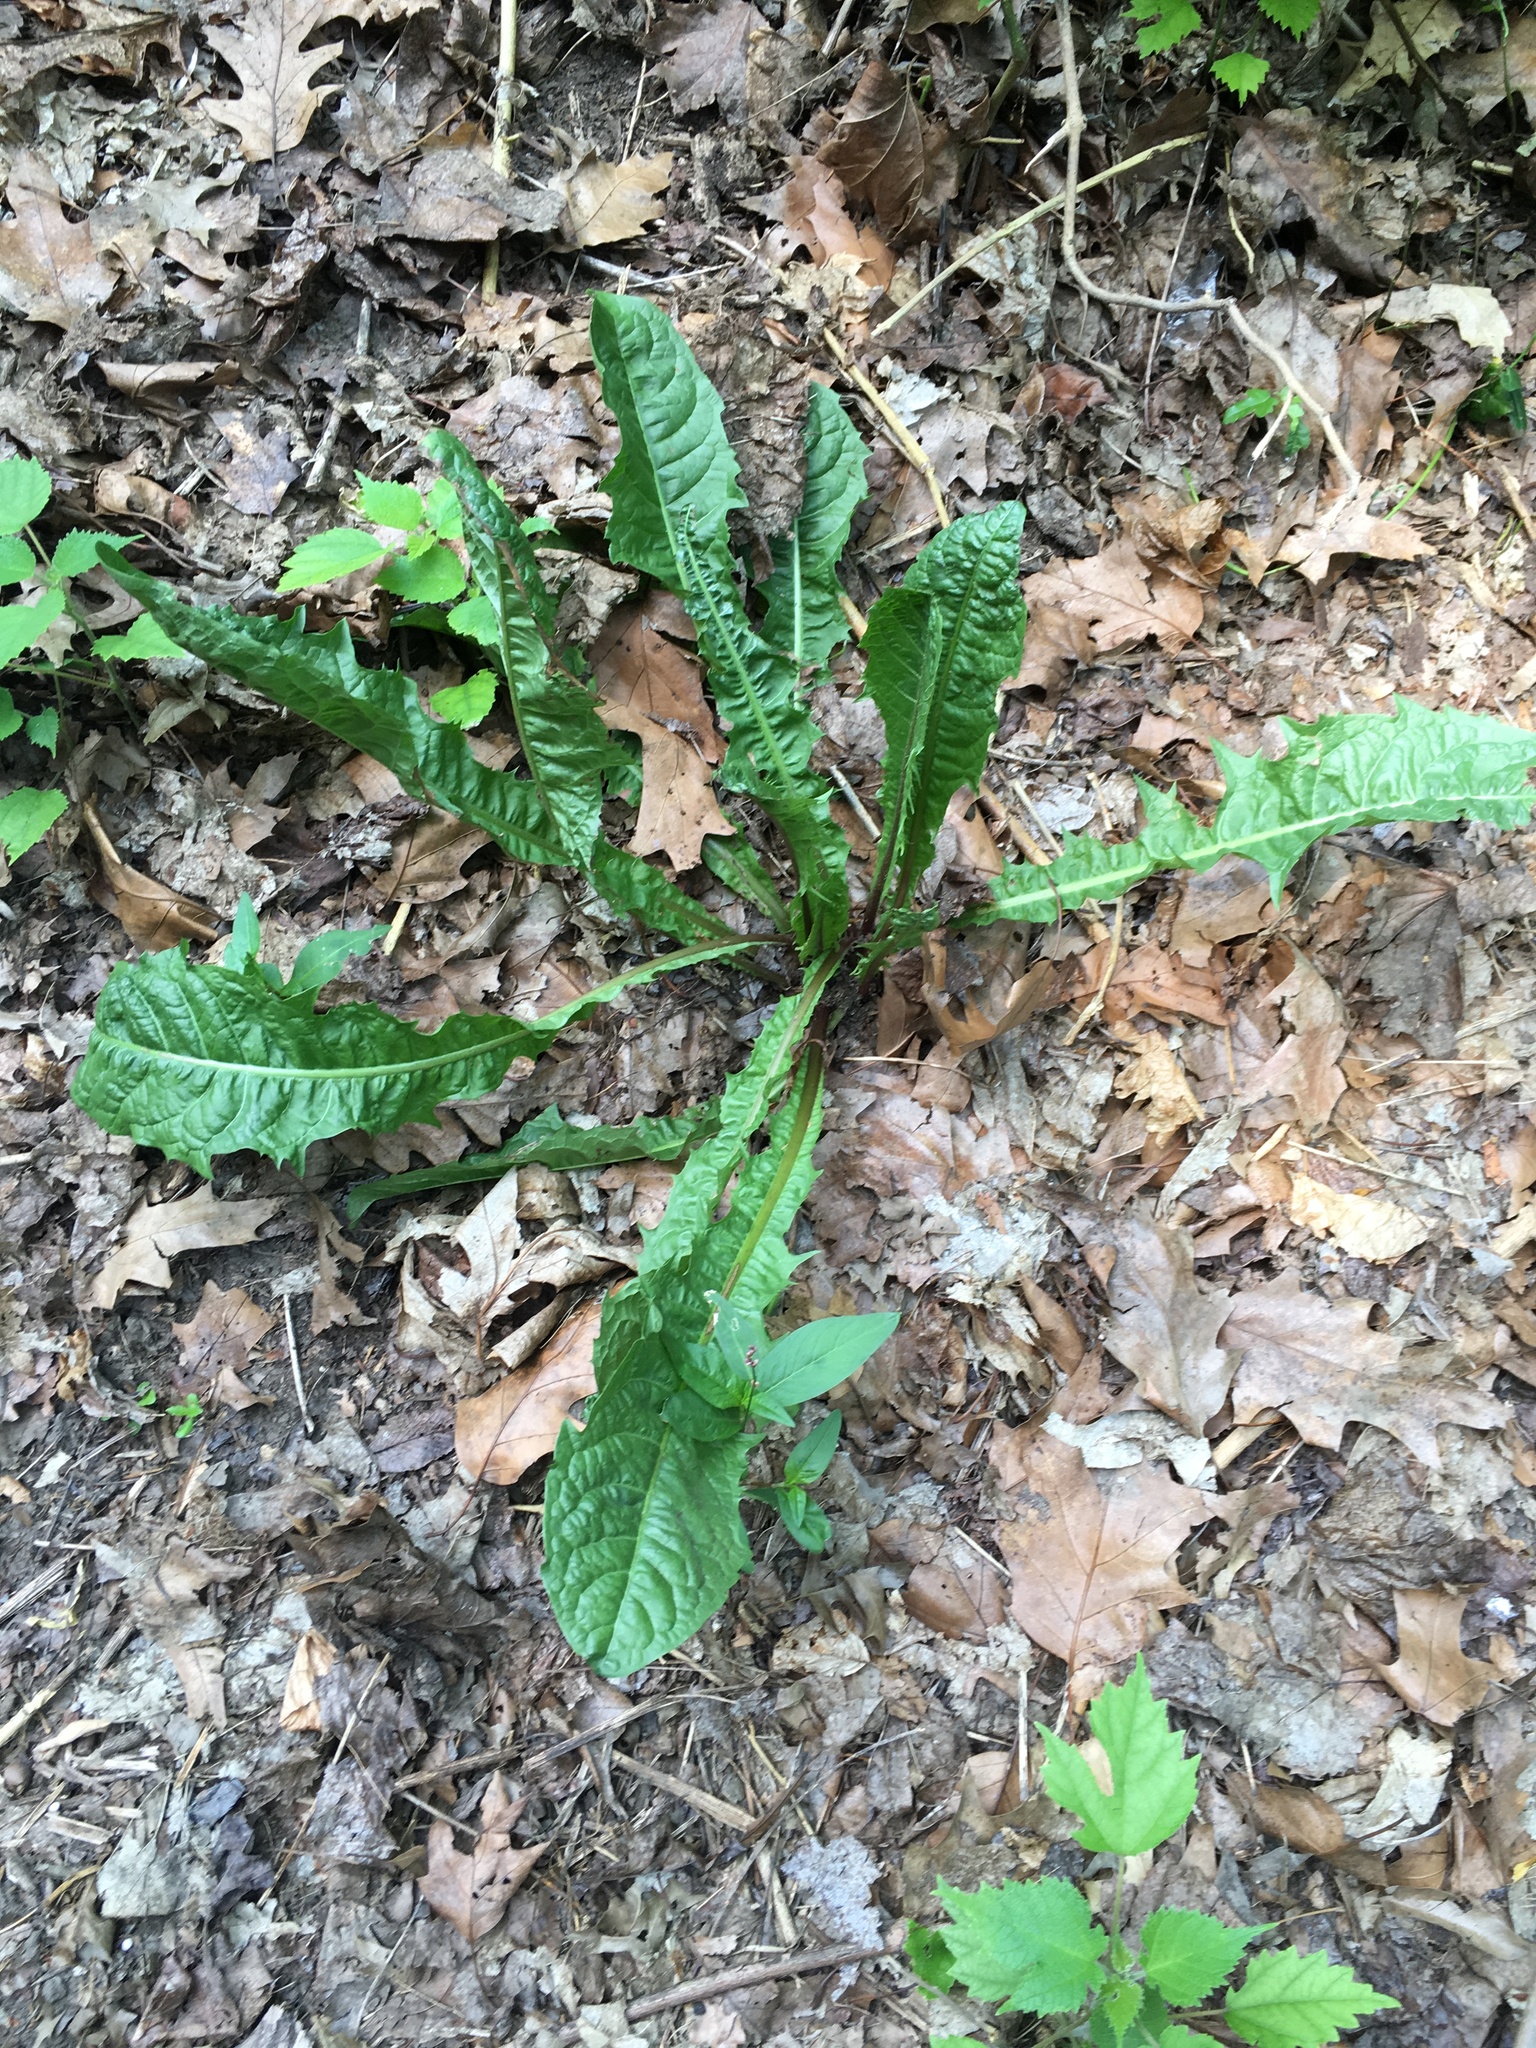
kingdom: Plantae
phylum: Tracheophyta
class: Magnoliopsida
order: Asterales
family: Asteraceae
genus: Taraxacum
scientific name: Taraxacum officinale
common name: Common dandelion
